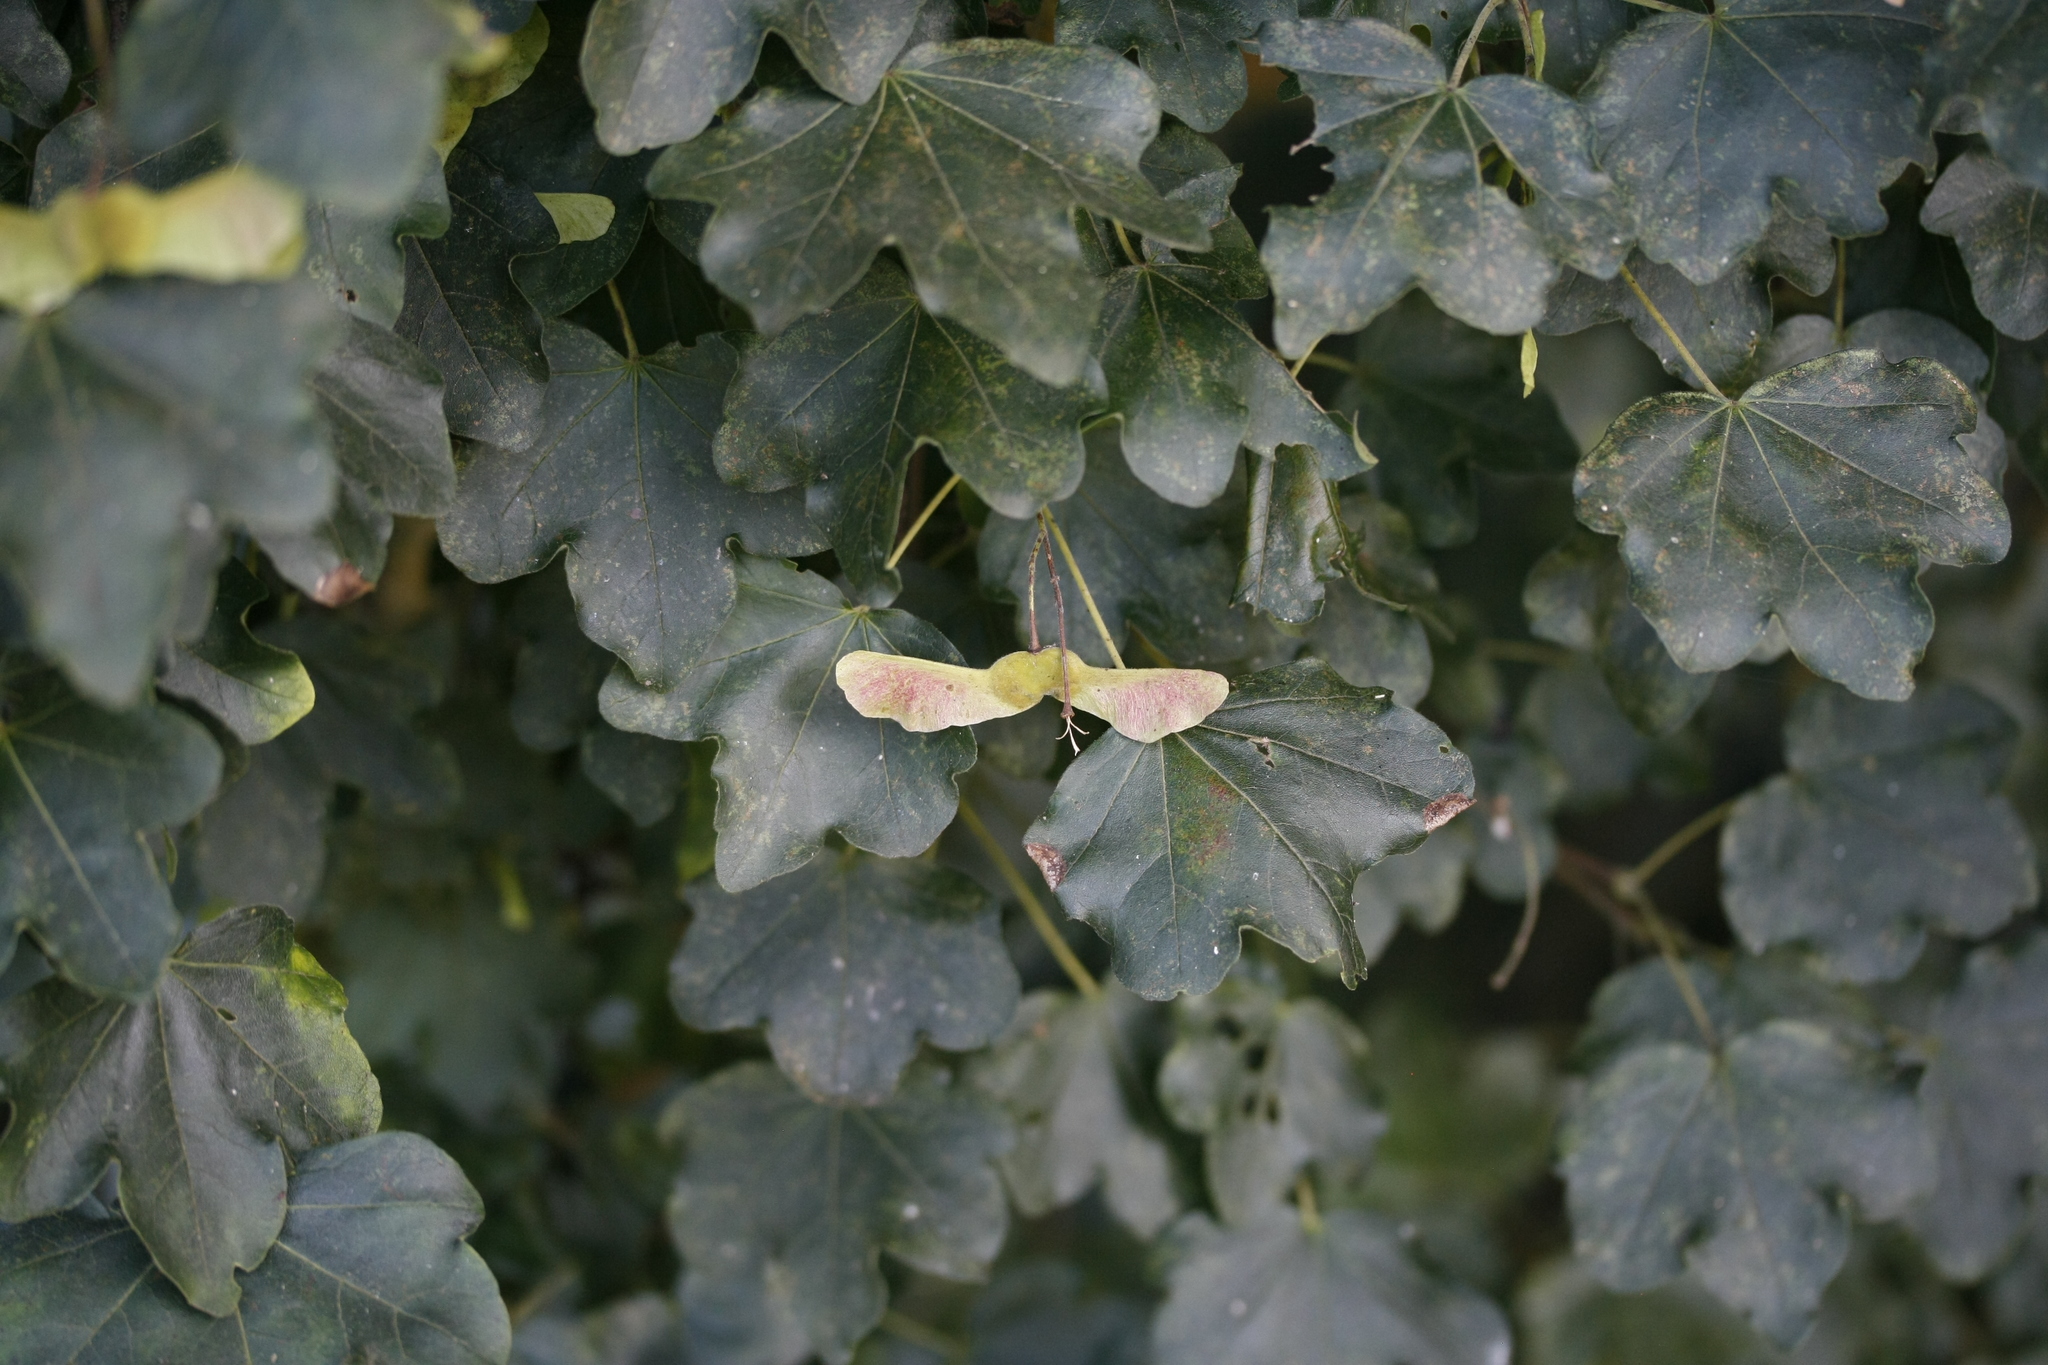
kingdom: Plantae
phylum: Tracheophyta
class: Magnoliopsida
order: Sapindales
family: Sapindaceae
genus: Acer
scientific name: Acer campestre
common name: Field maple
